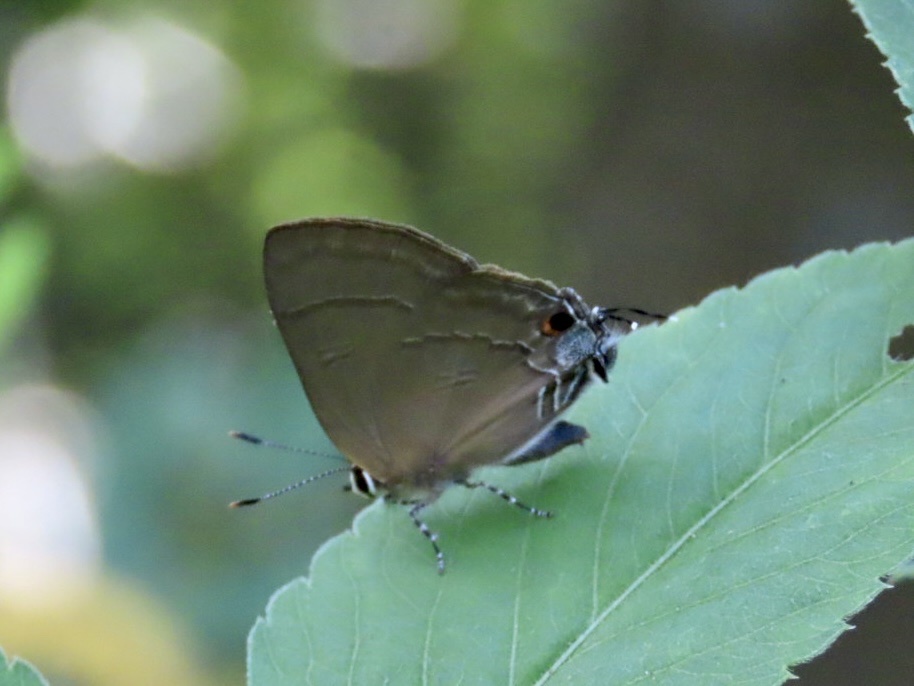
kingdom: Animalia
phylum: Arthropoda
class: Insecta
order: Lepidoptera
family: Lycaenidae
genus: Rapala
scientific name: Rapala manea
